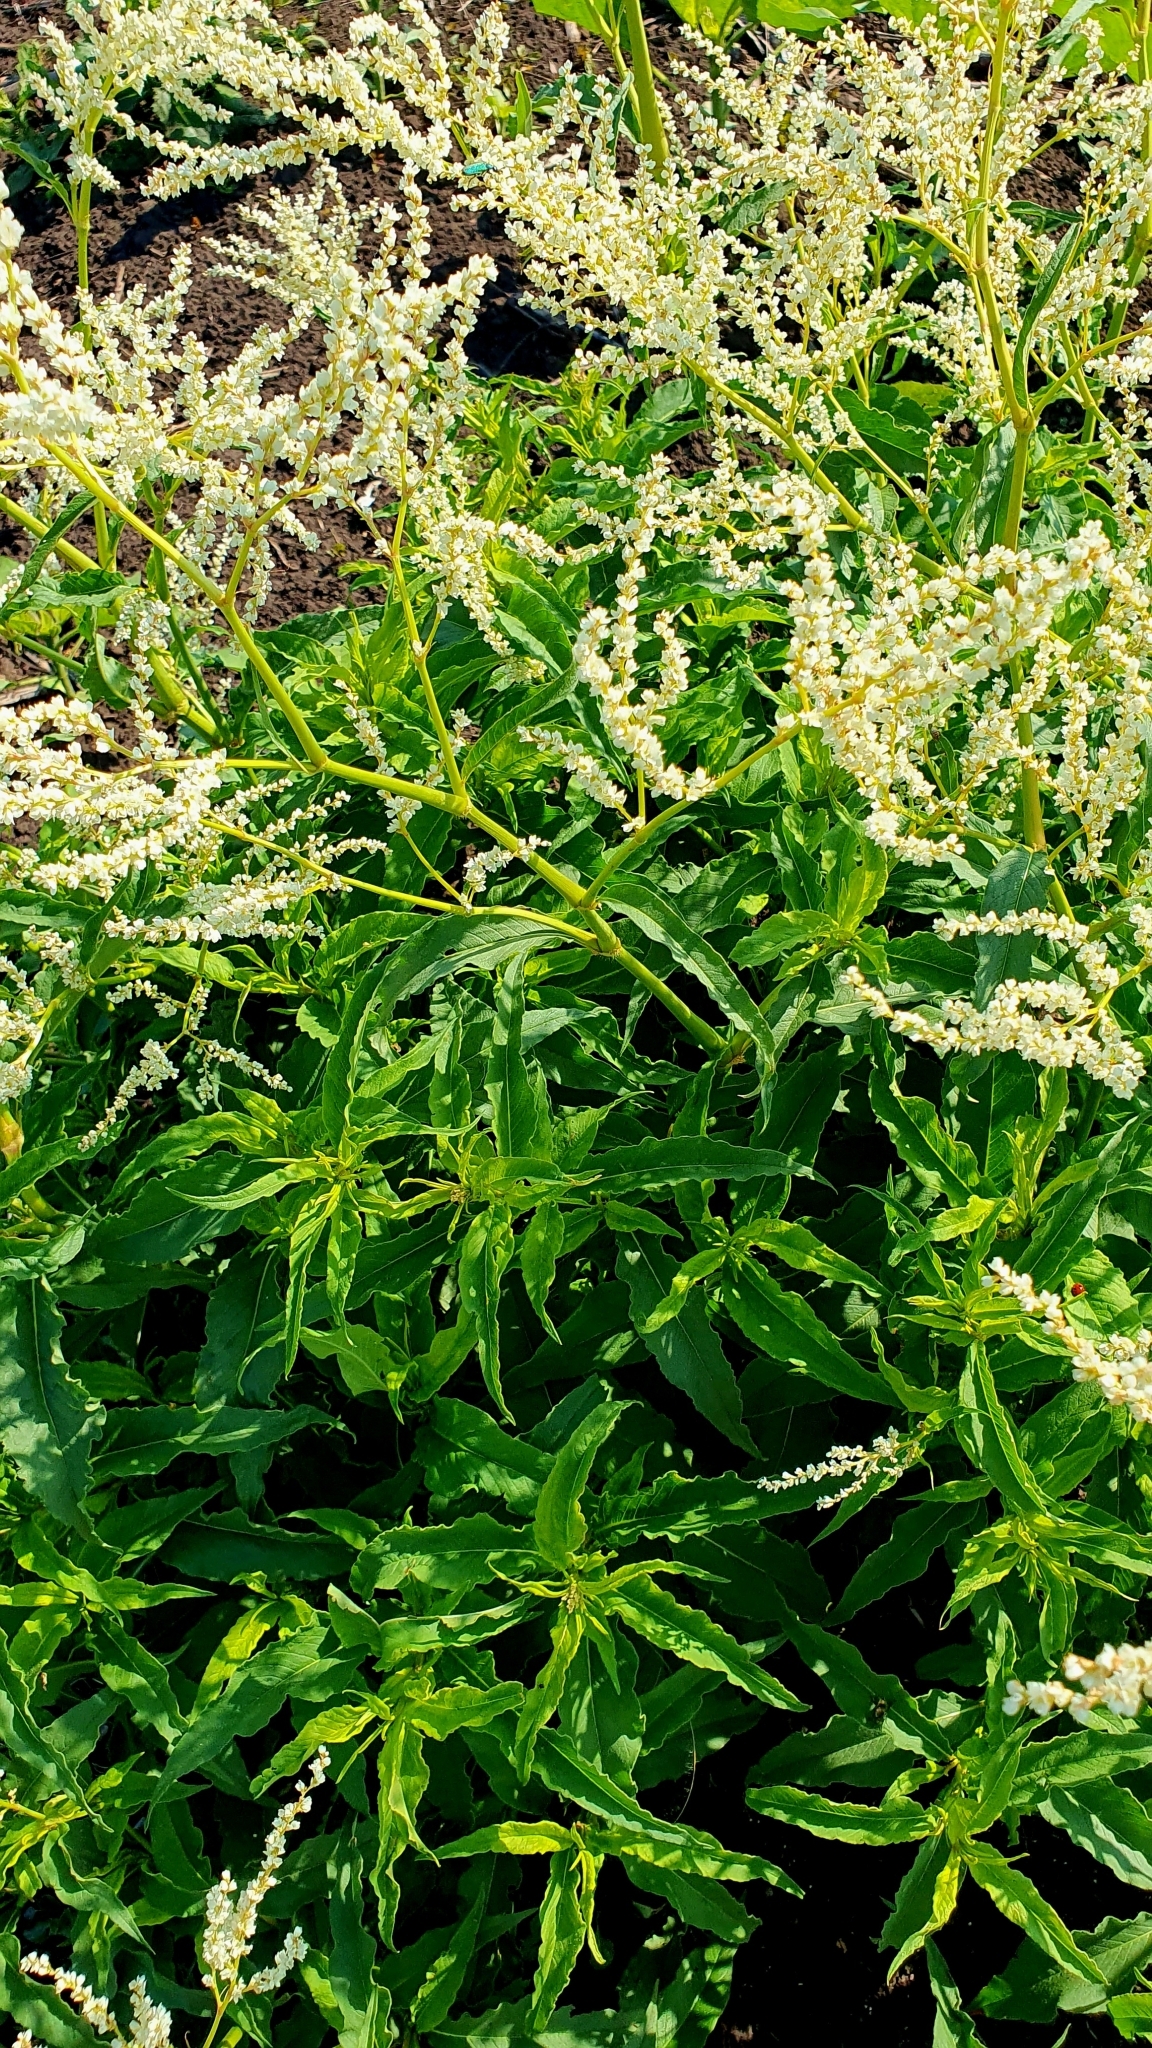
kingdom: Plantae
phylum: Tracheophyta
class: Magnoliopsida
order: Caryophyllales
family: Polygonaceae
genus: Koenigia
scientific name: Koenigia alpina
